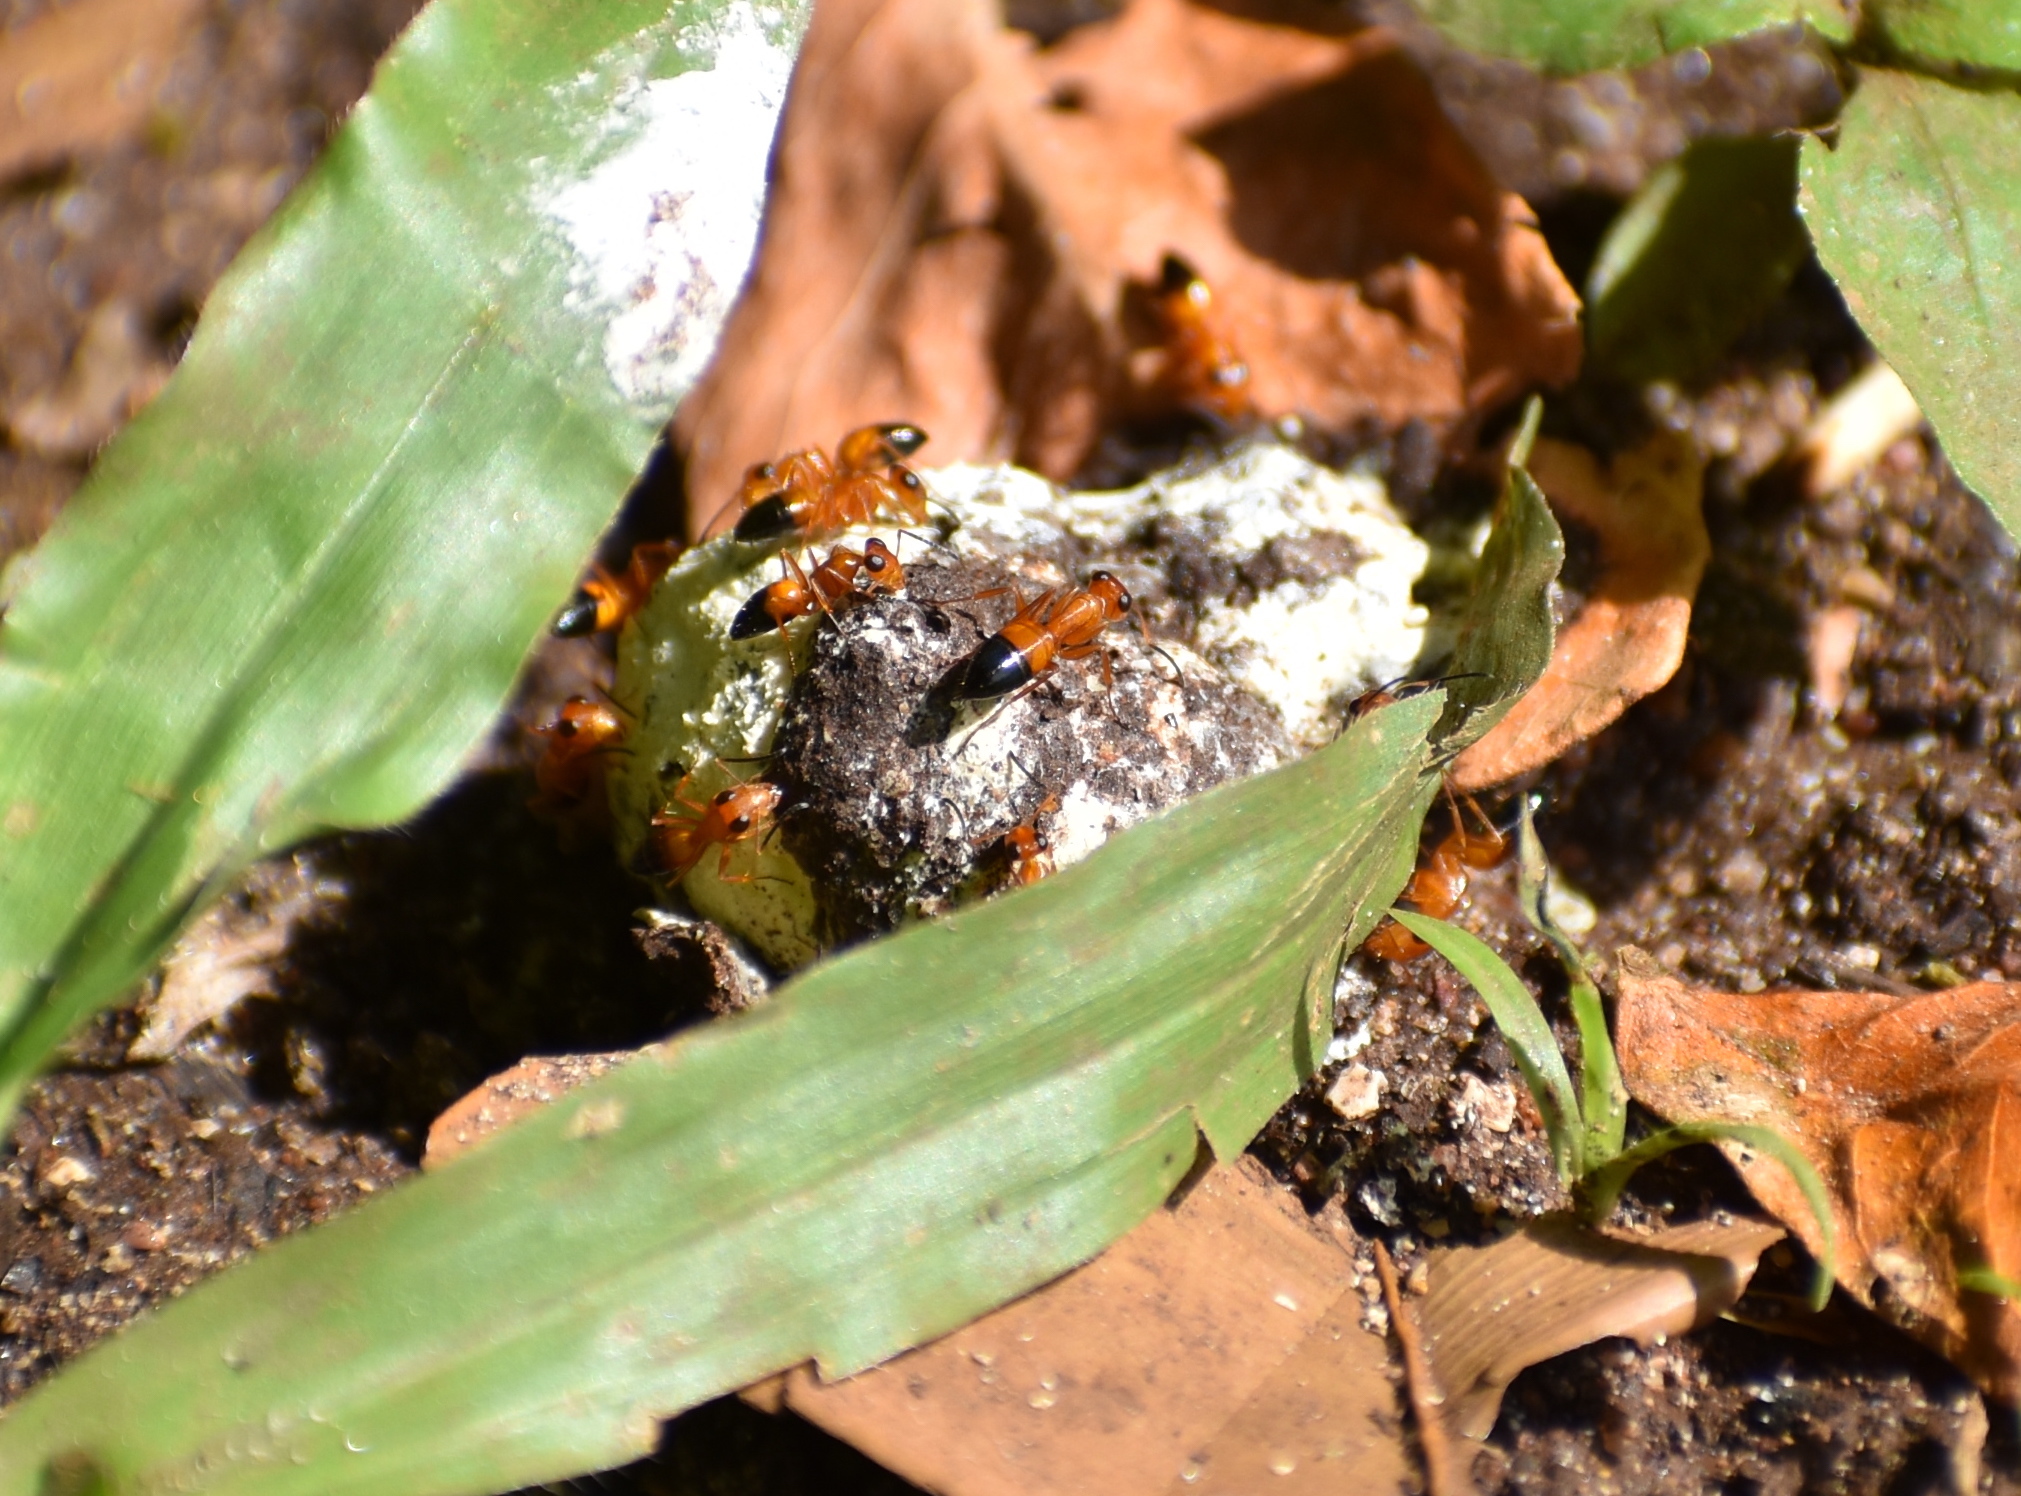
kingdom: Animalia
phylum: Arthropoda
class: Insecta
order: Hymenoptera
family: Formicidae
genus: Opisthopsis
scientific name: Opisthopsis haddoni
